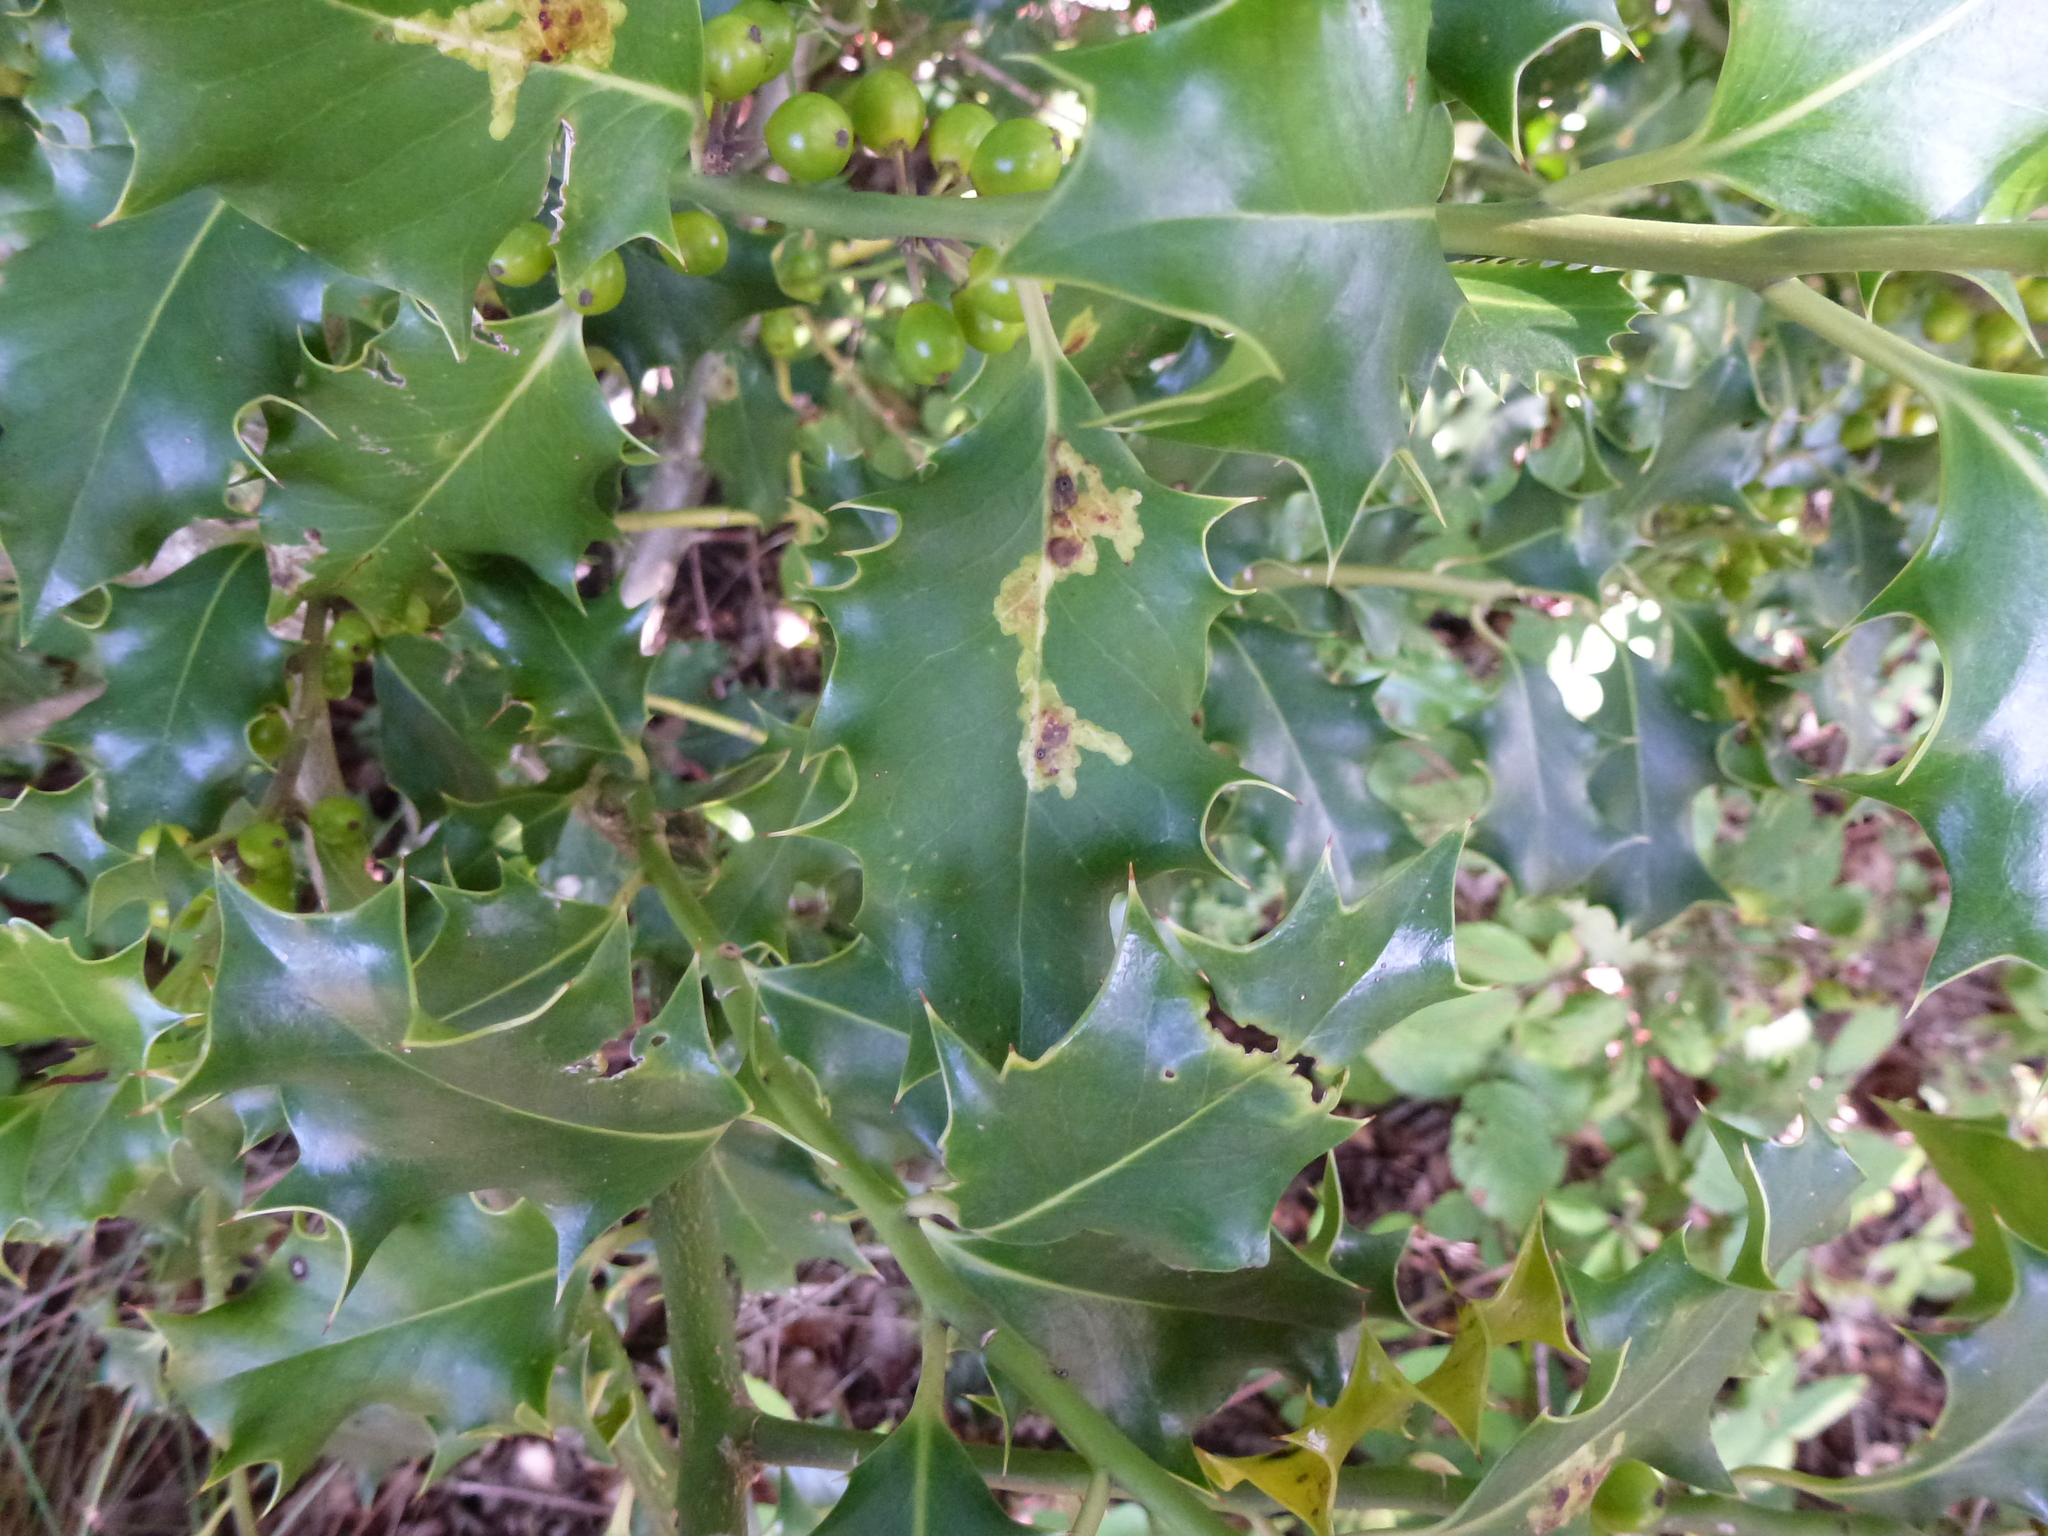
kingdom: Animalia
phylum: Arthropoda
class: Insecta
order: Diptera
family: Agromyzidae
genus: Phytomyza
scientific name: Phytomyza ilicis
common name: Holly leafminer
